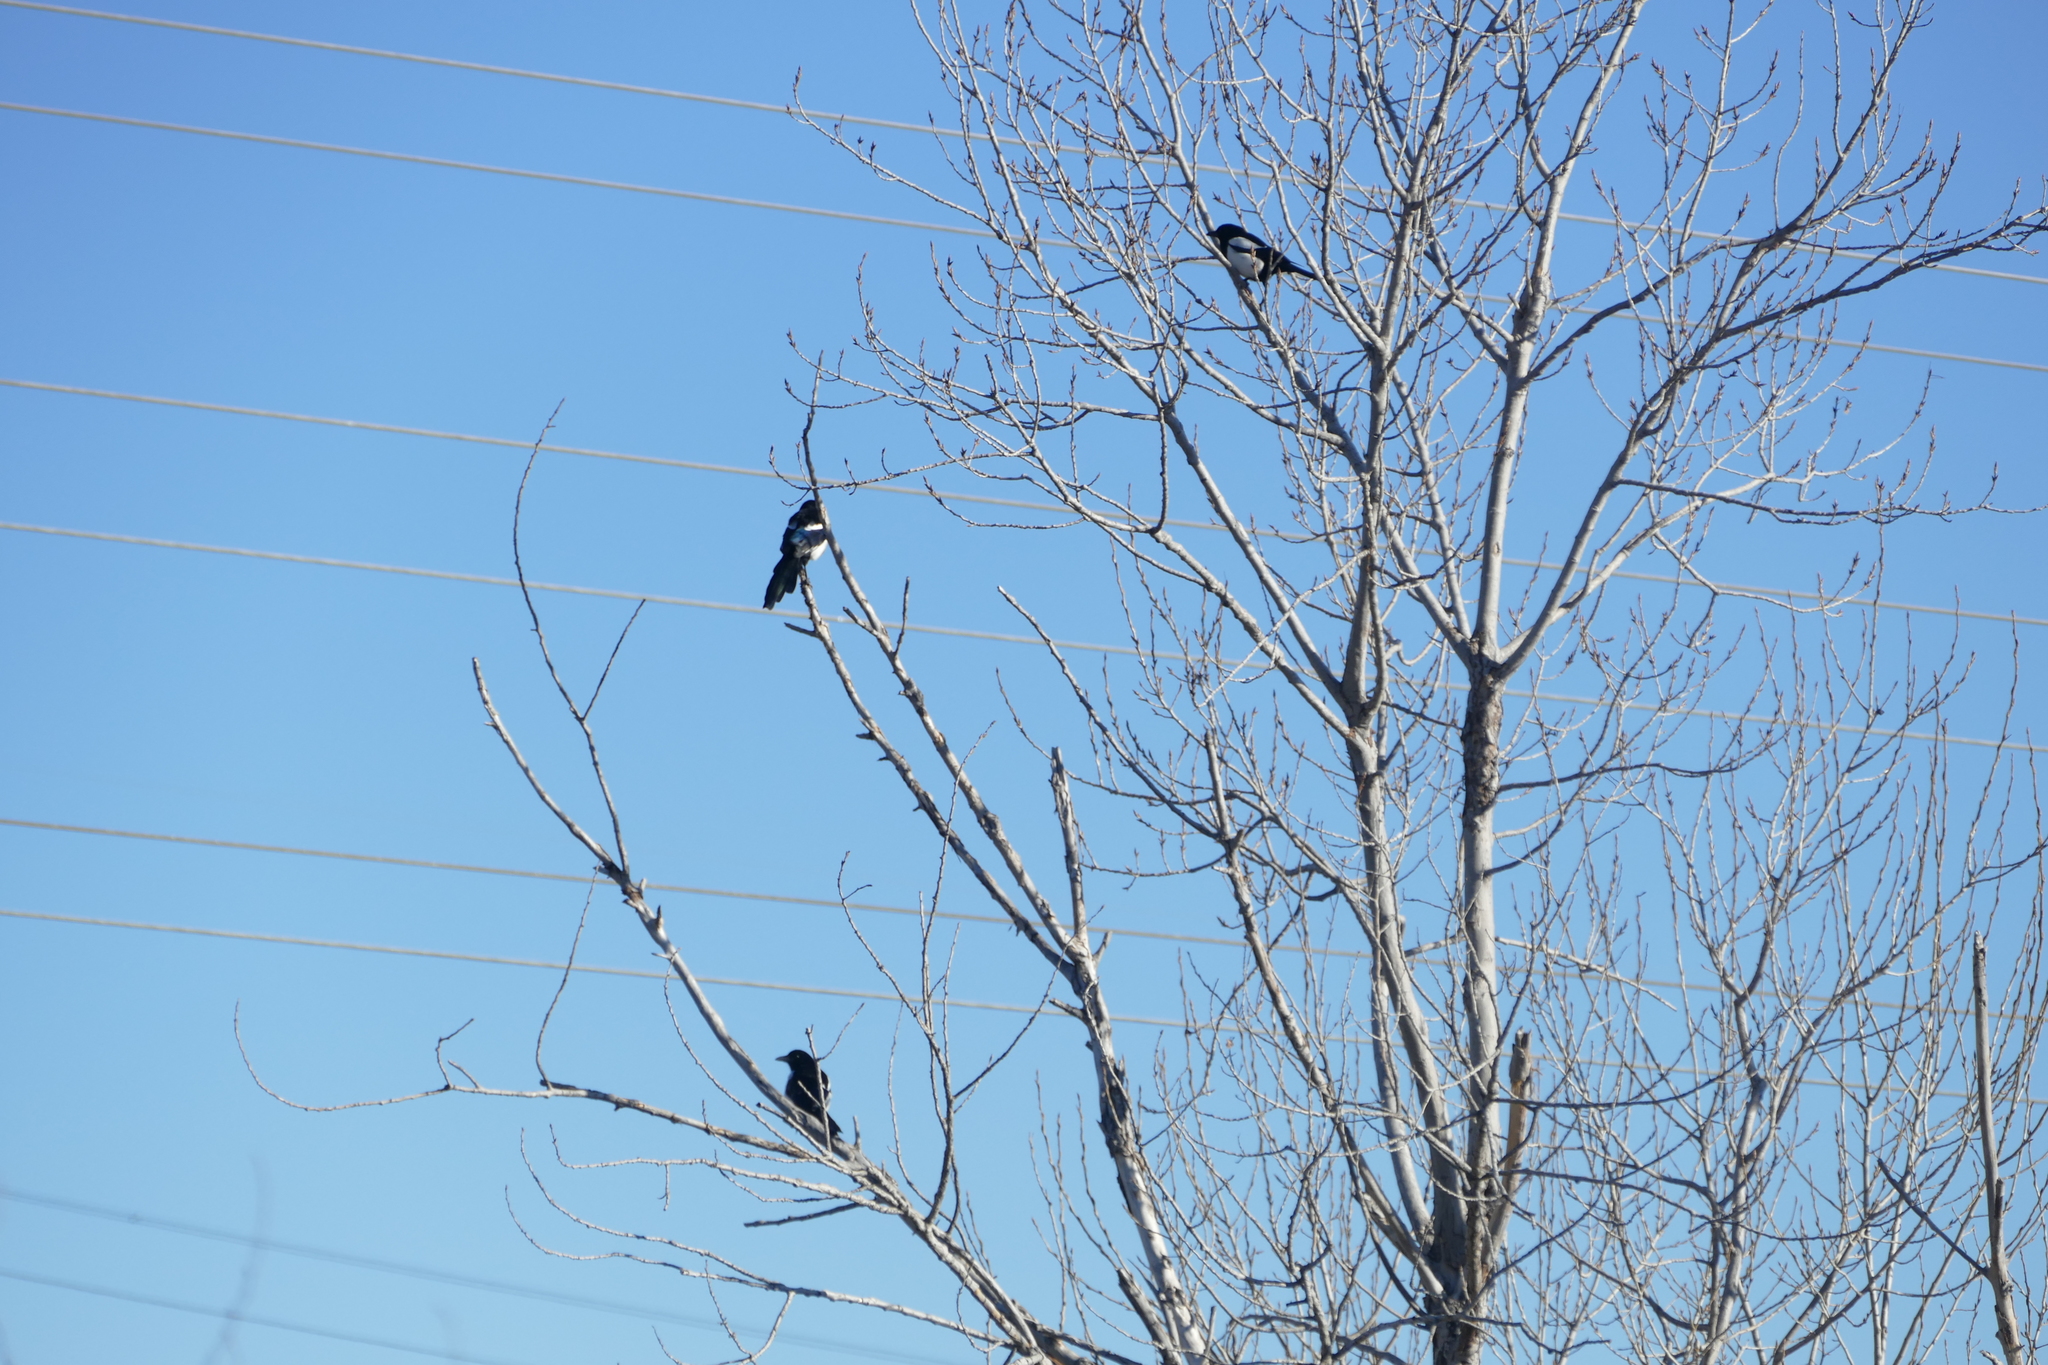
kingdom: Animalia
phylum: Chordata
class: Aves
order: Passeriformes
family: Corvidae
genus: Pica
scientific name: Pica pica
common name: Eurasian magpie
